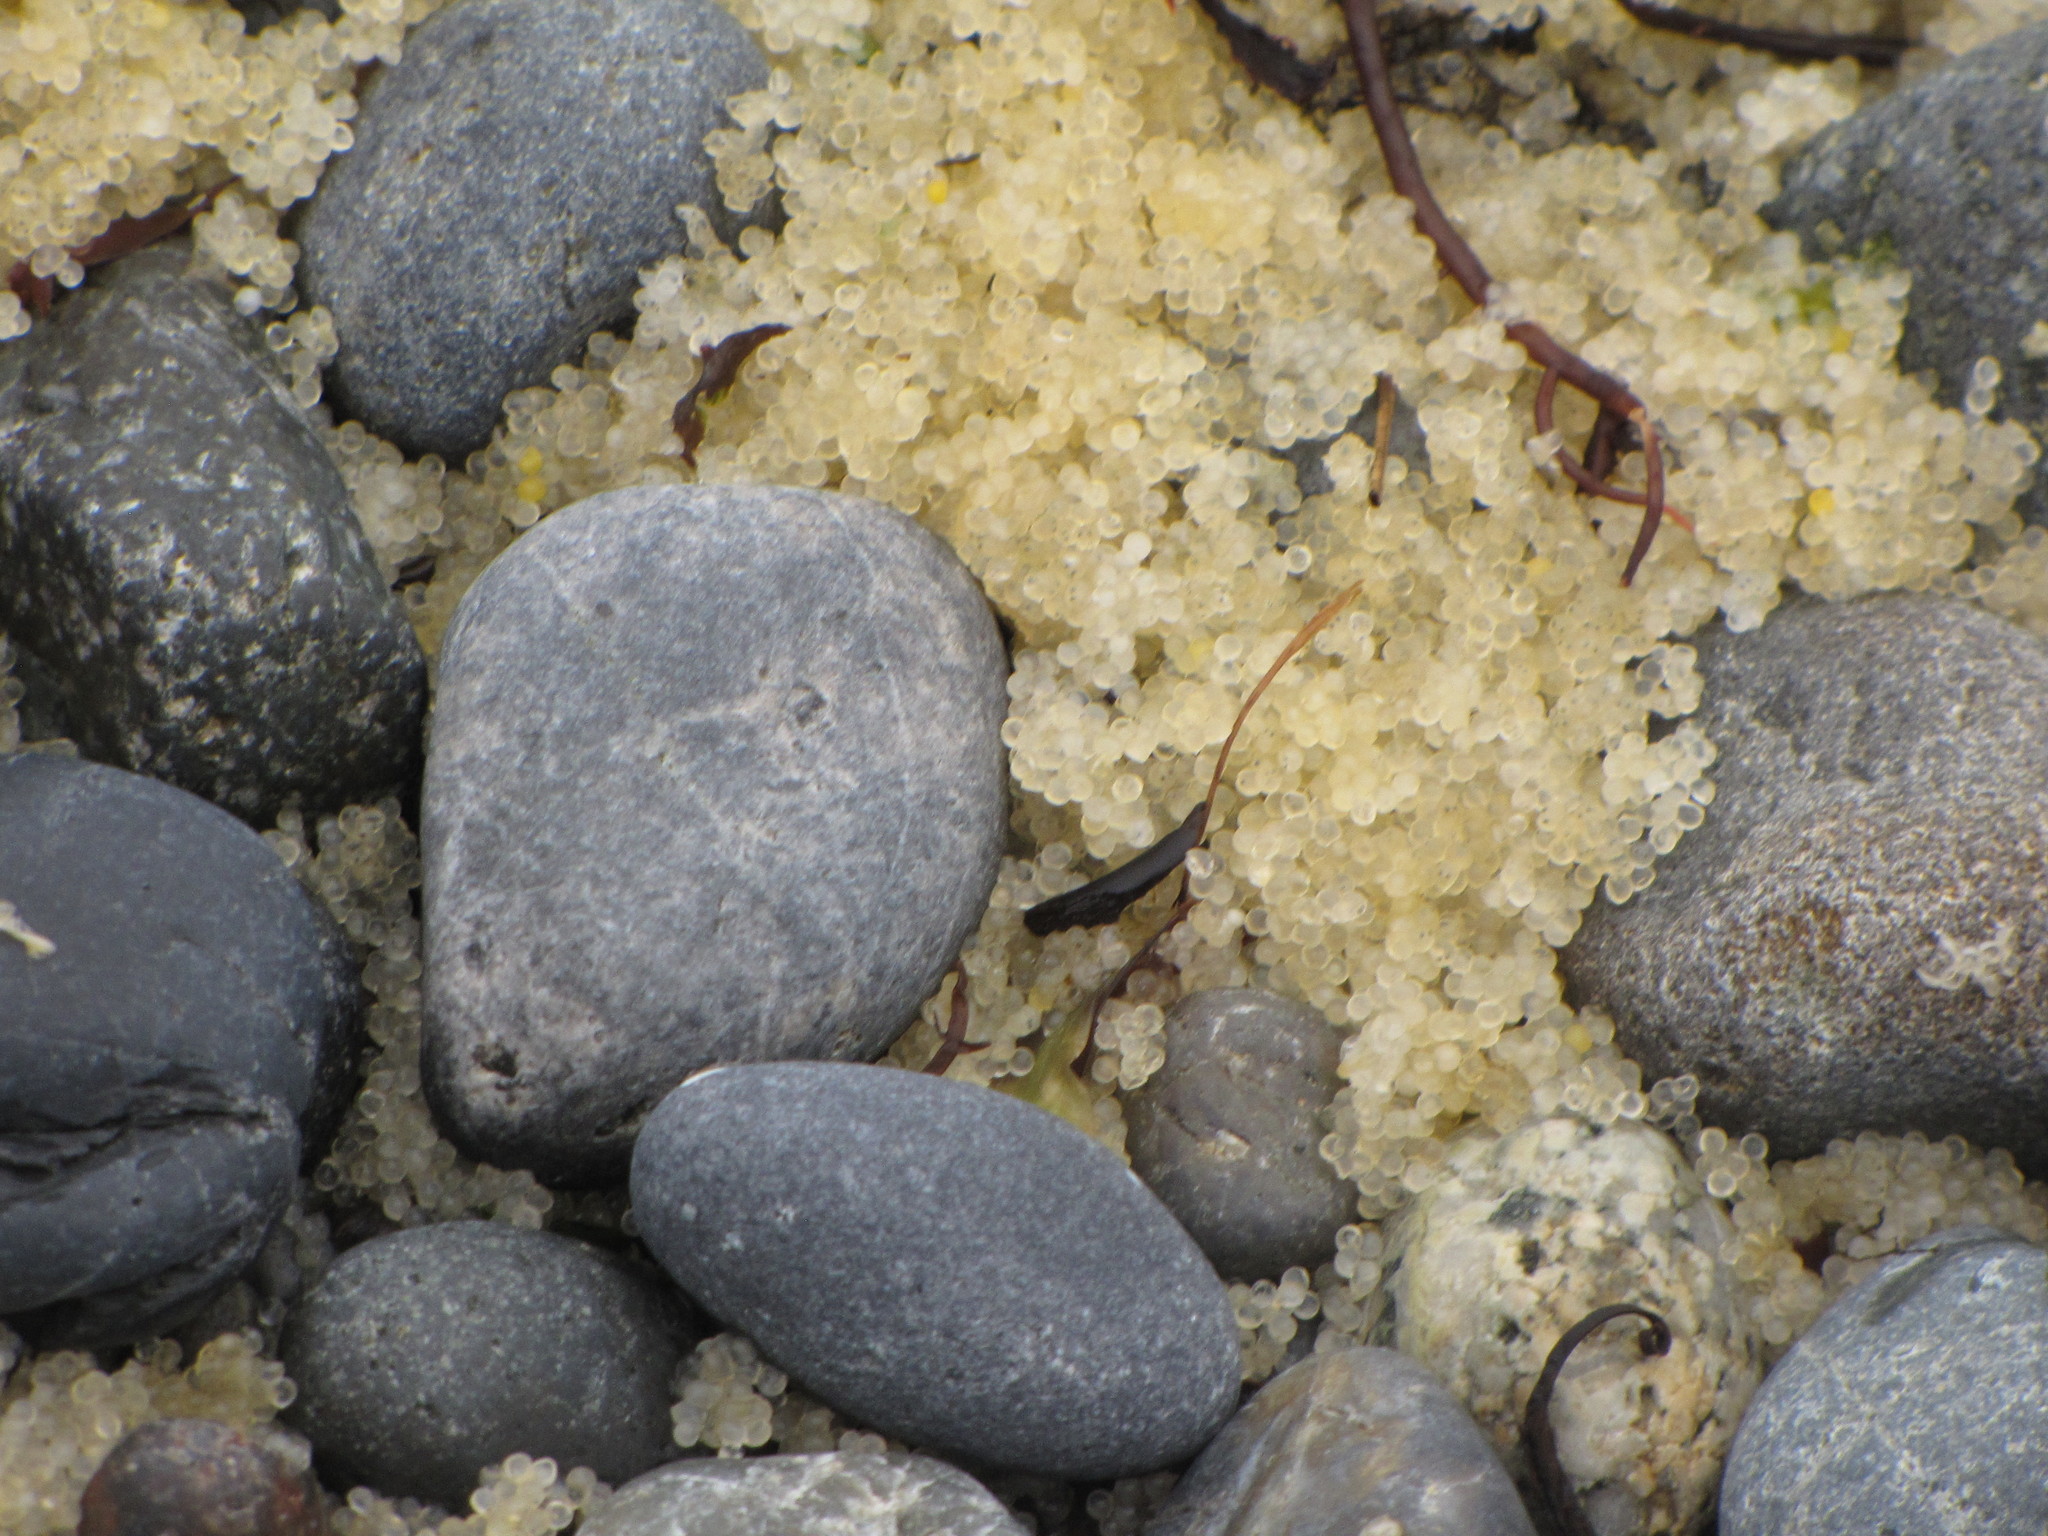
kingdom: Animalia
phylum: Chordata
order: Clupeiformes
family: Clupeidae
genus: Clupea
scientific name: Clupea pallasii
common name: Pacific herring
